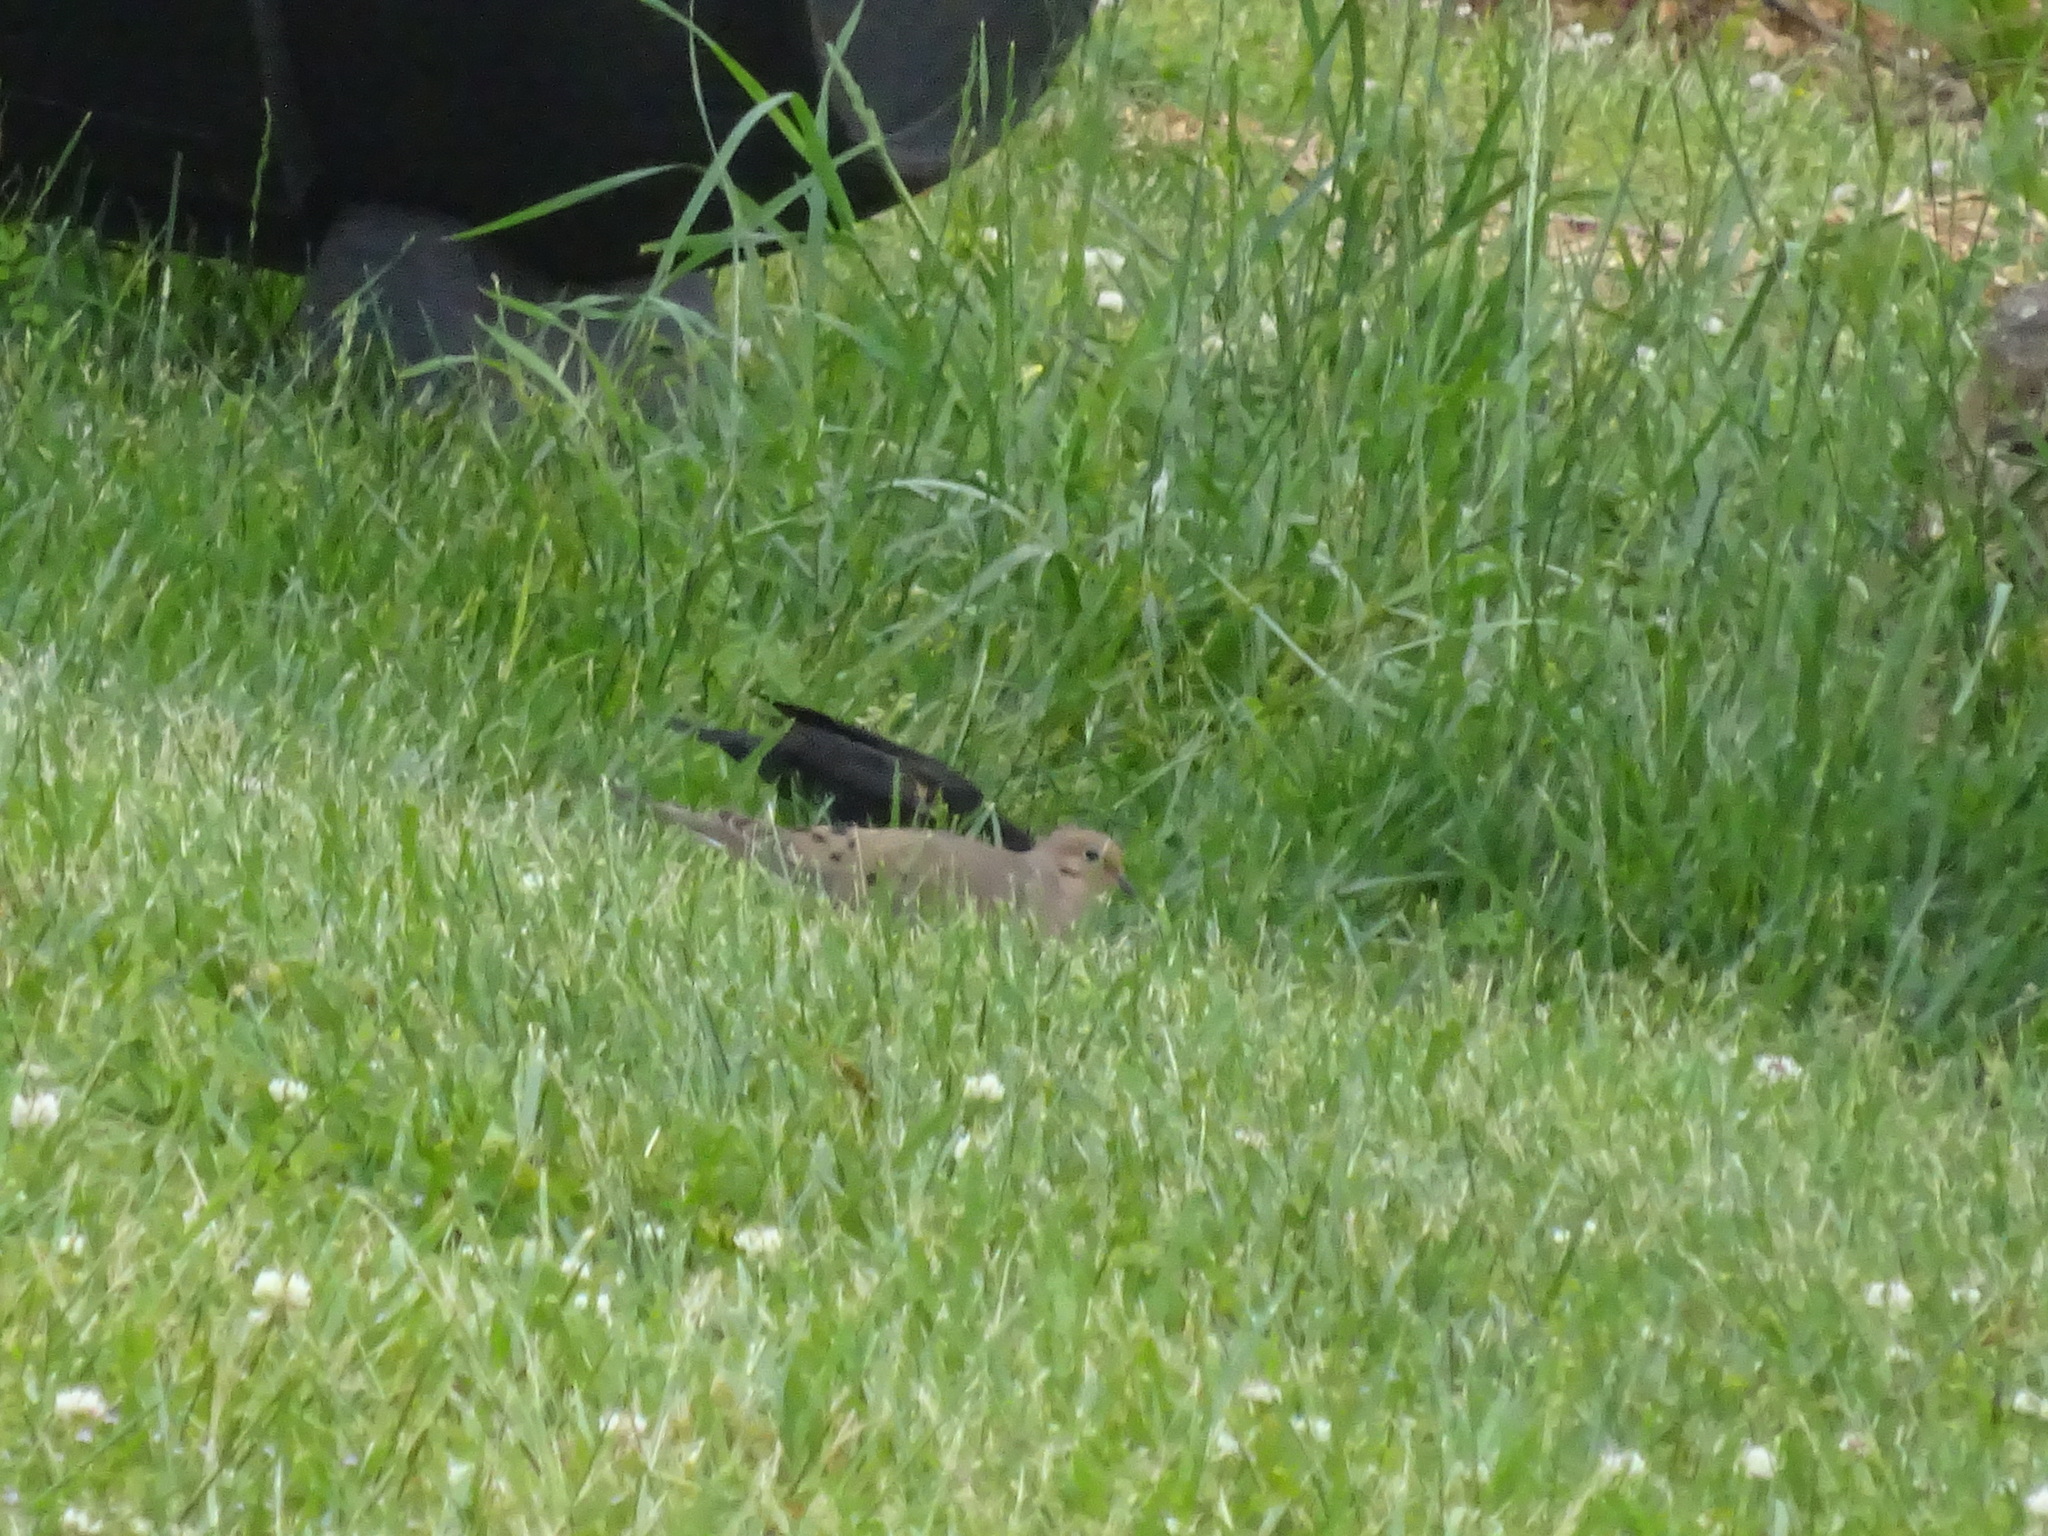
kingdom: Animalia
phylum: Chordata
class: Aves
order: Passeriformes
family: Icteridae
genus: Agelaius
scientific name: Agelaius phoeniceus
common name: Red-winged blackbird
